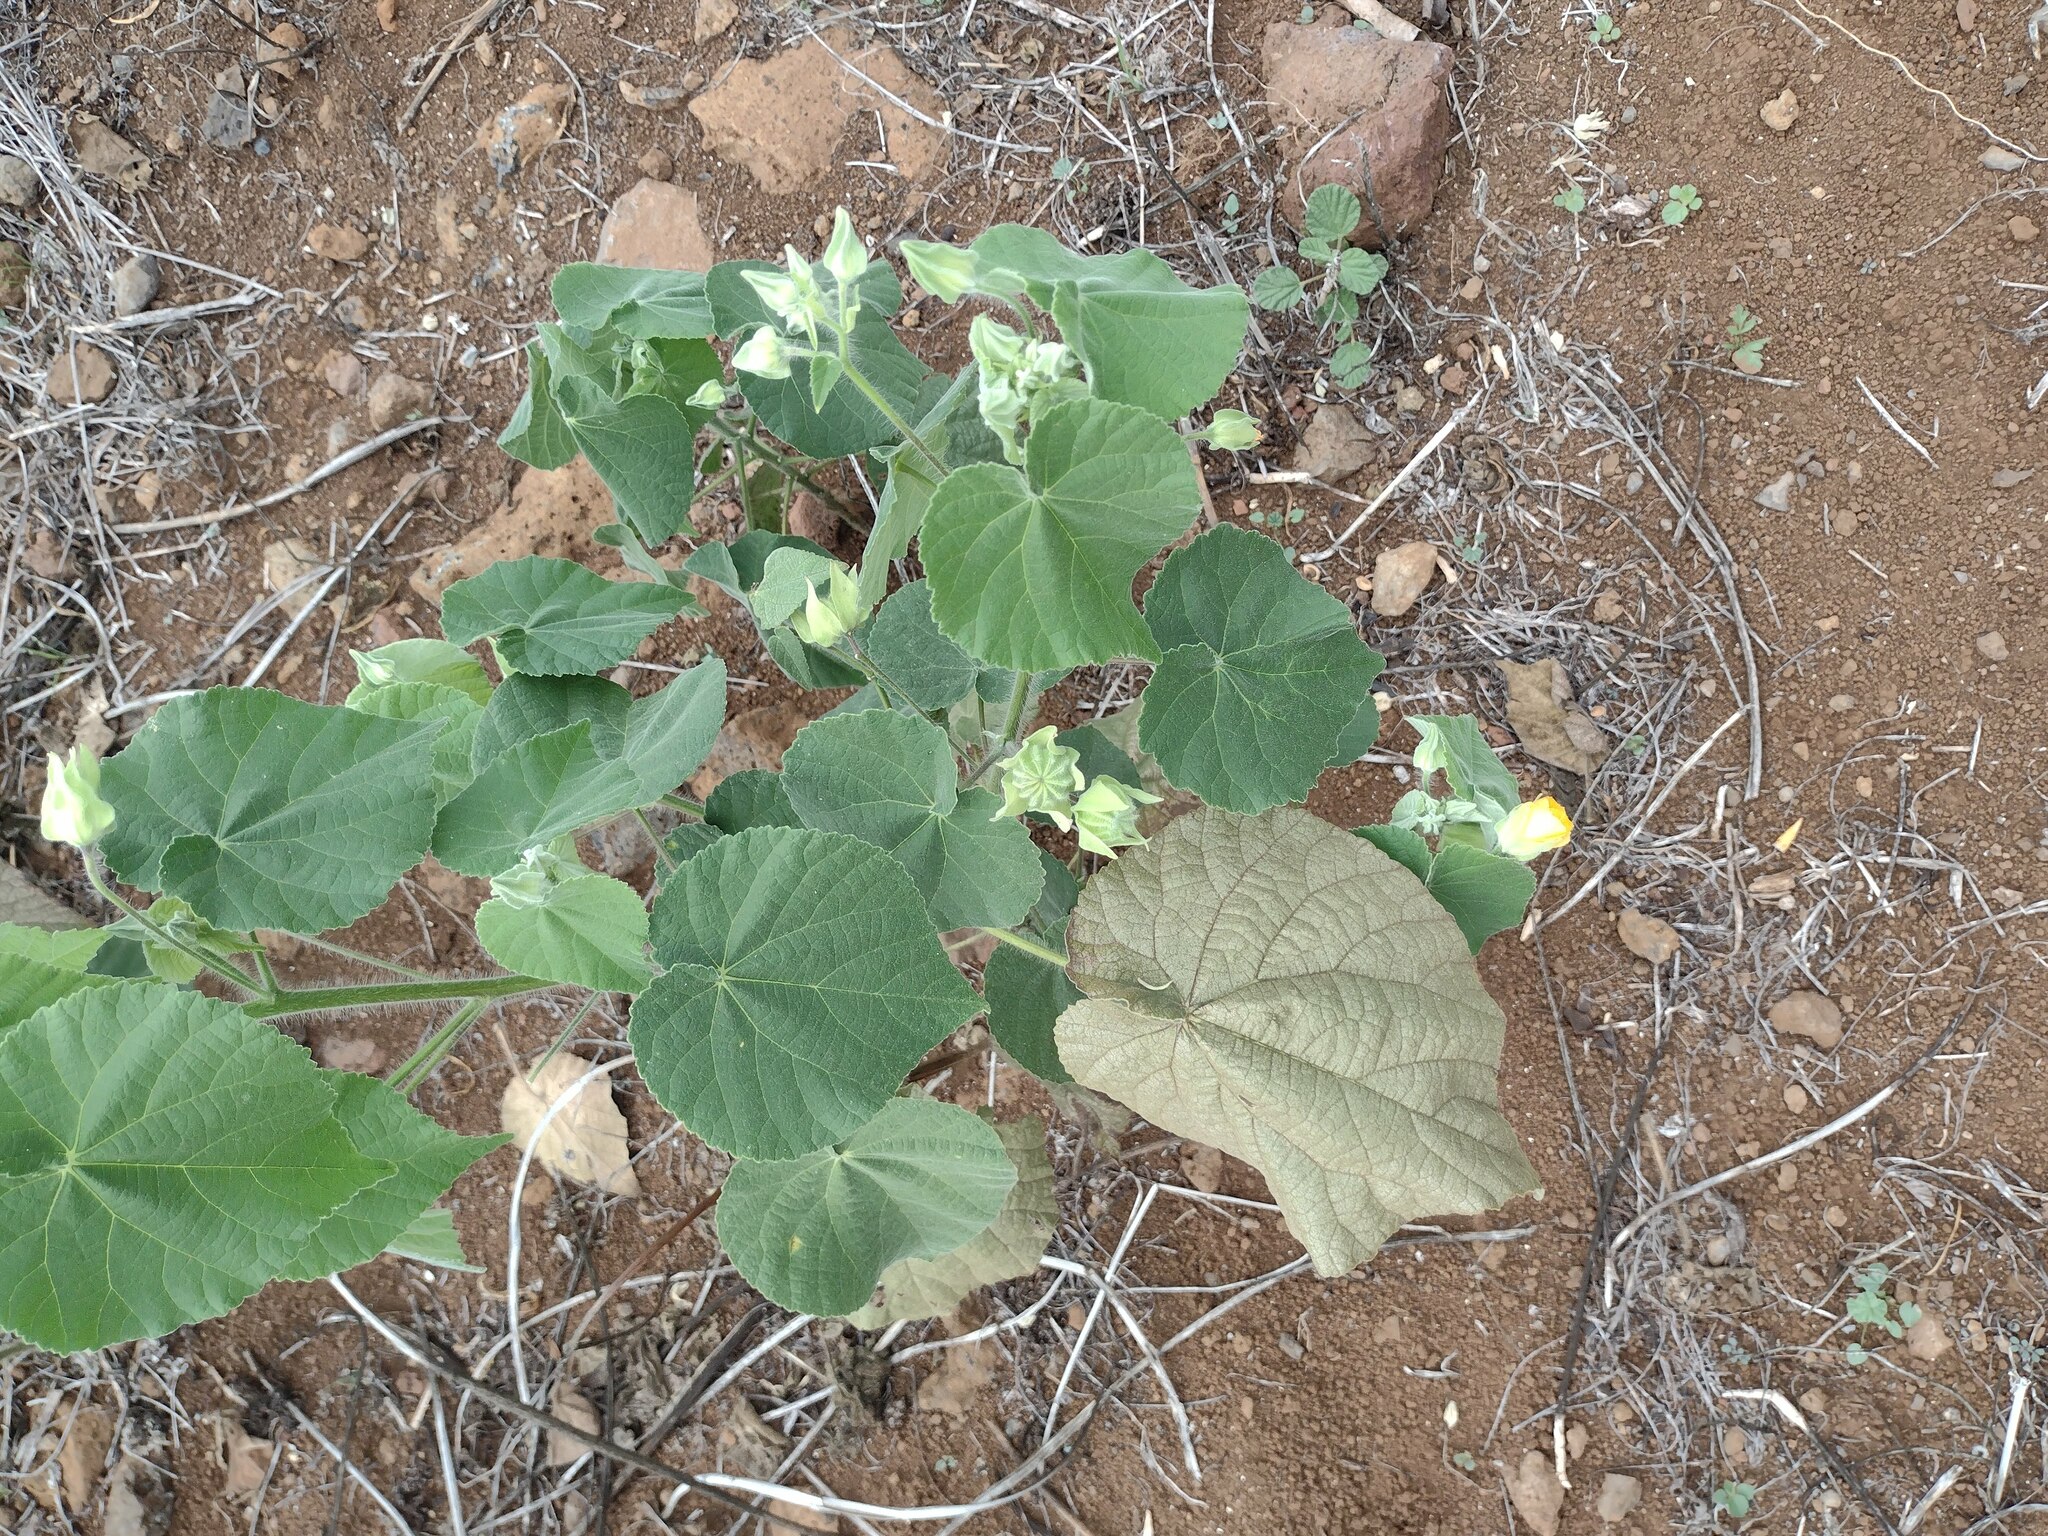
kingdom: Plantae
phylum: Tracheophyta
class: Magnoliopsida
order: Malvales
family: Malvaceae
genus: Abutilon
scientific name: Abutilon grandifolium
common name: Hairy abutilon
